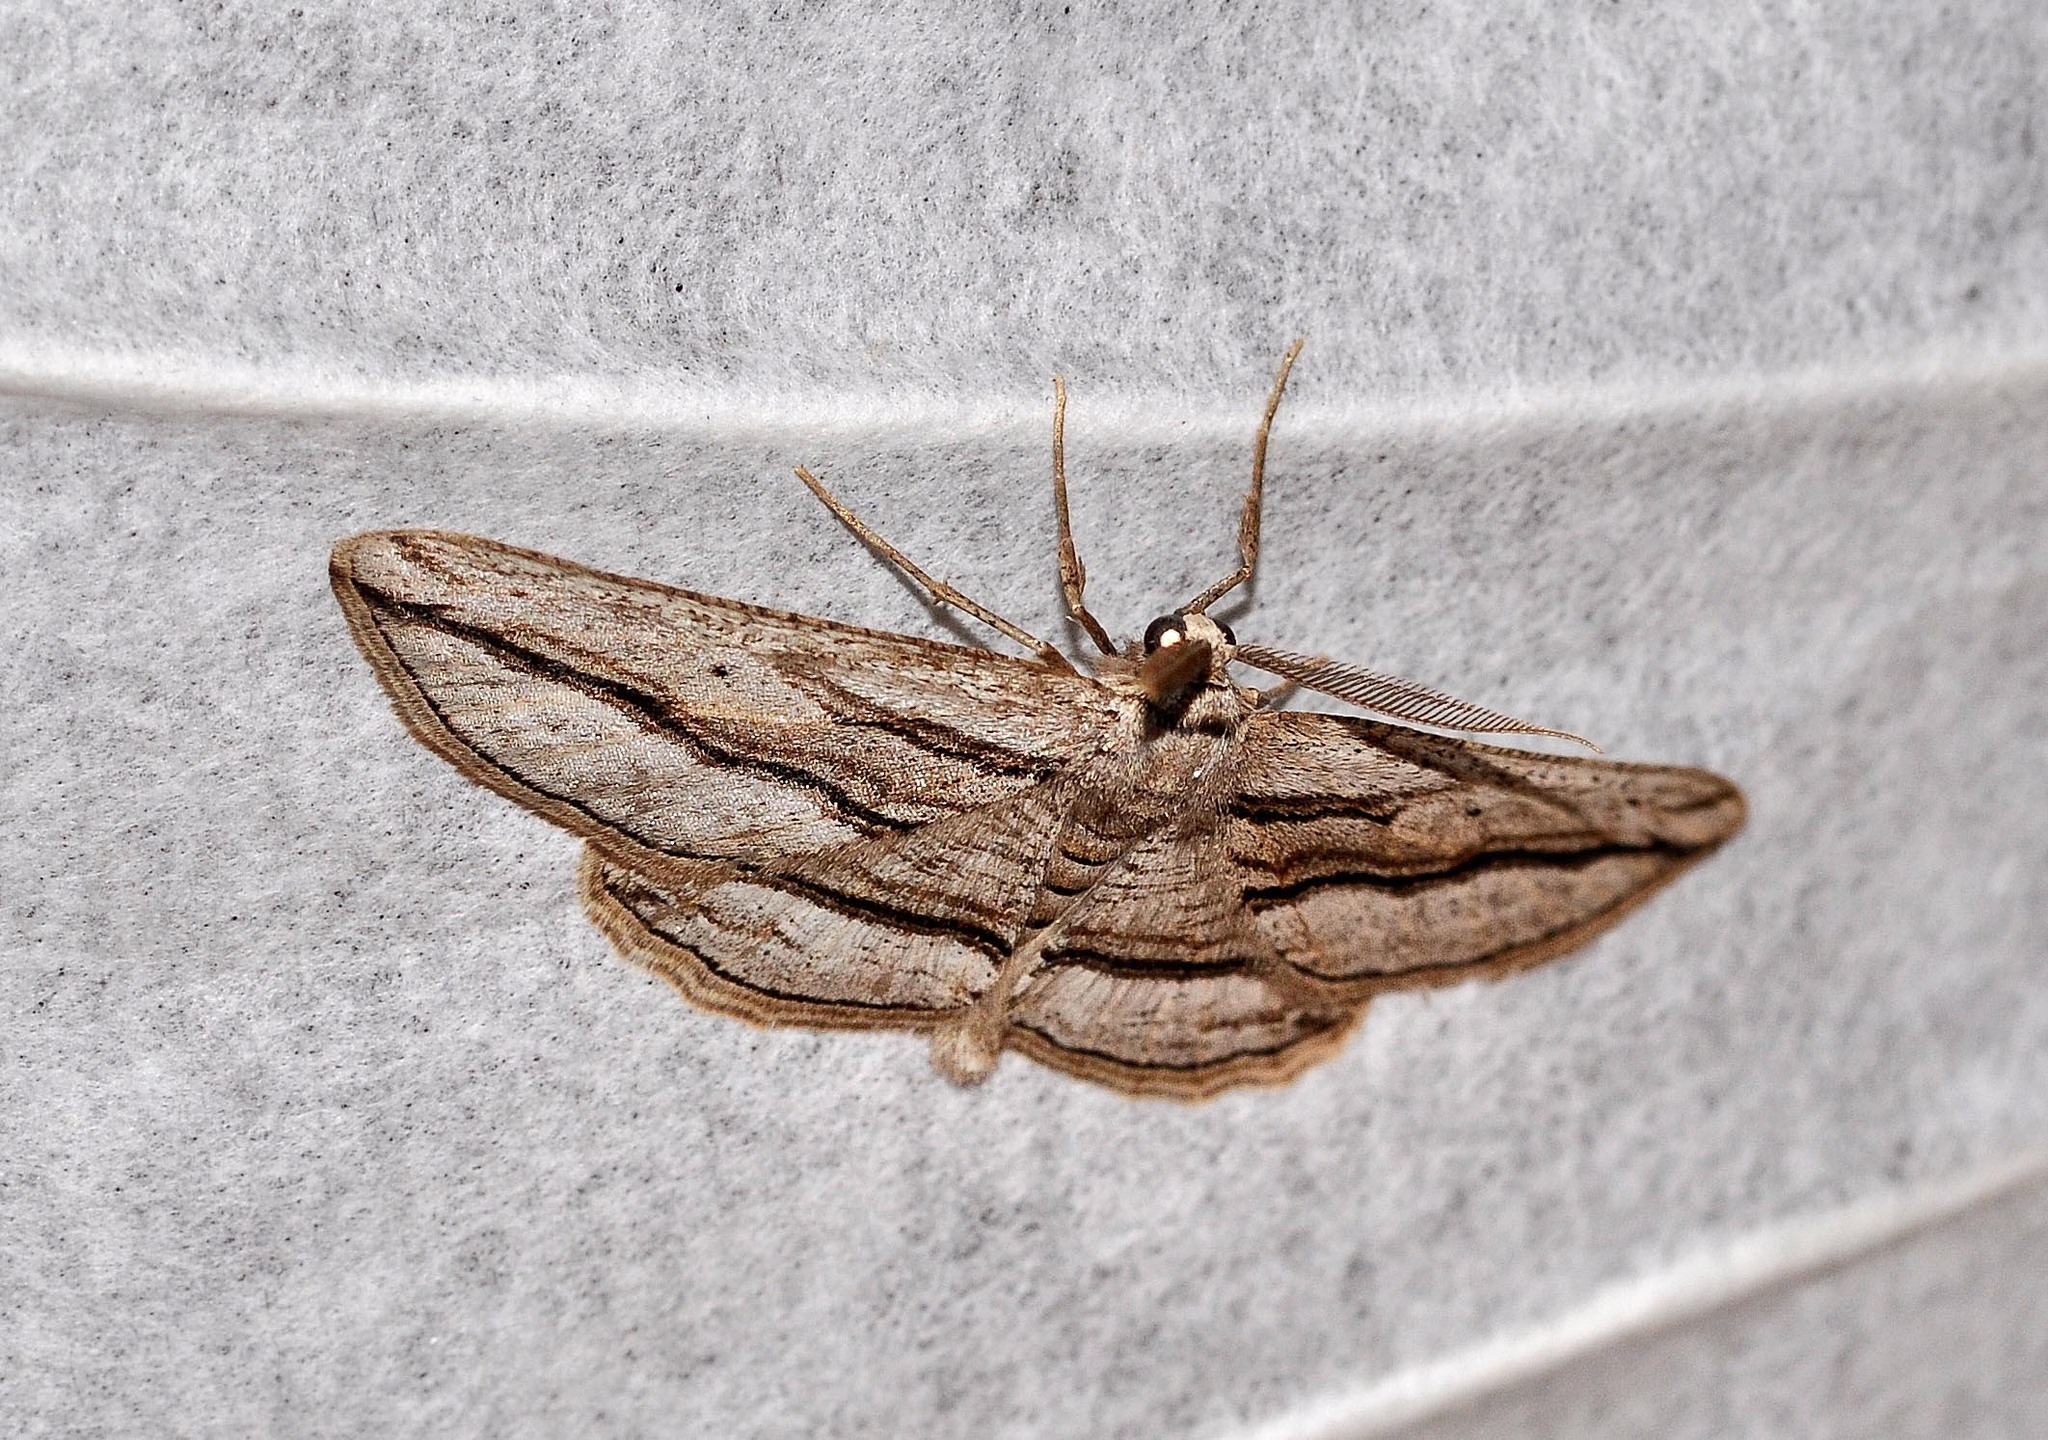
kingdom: Animalia
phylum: Arthropoda
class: Insecta
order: Lepidoptera
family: Geometridae
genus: Ecleora
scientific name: Ecleora solieraria
